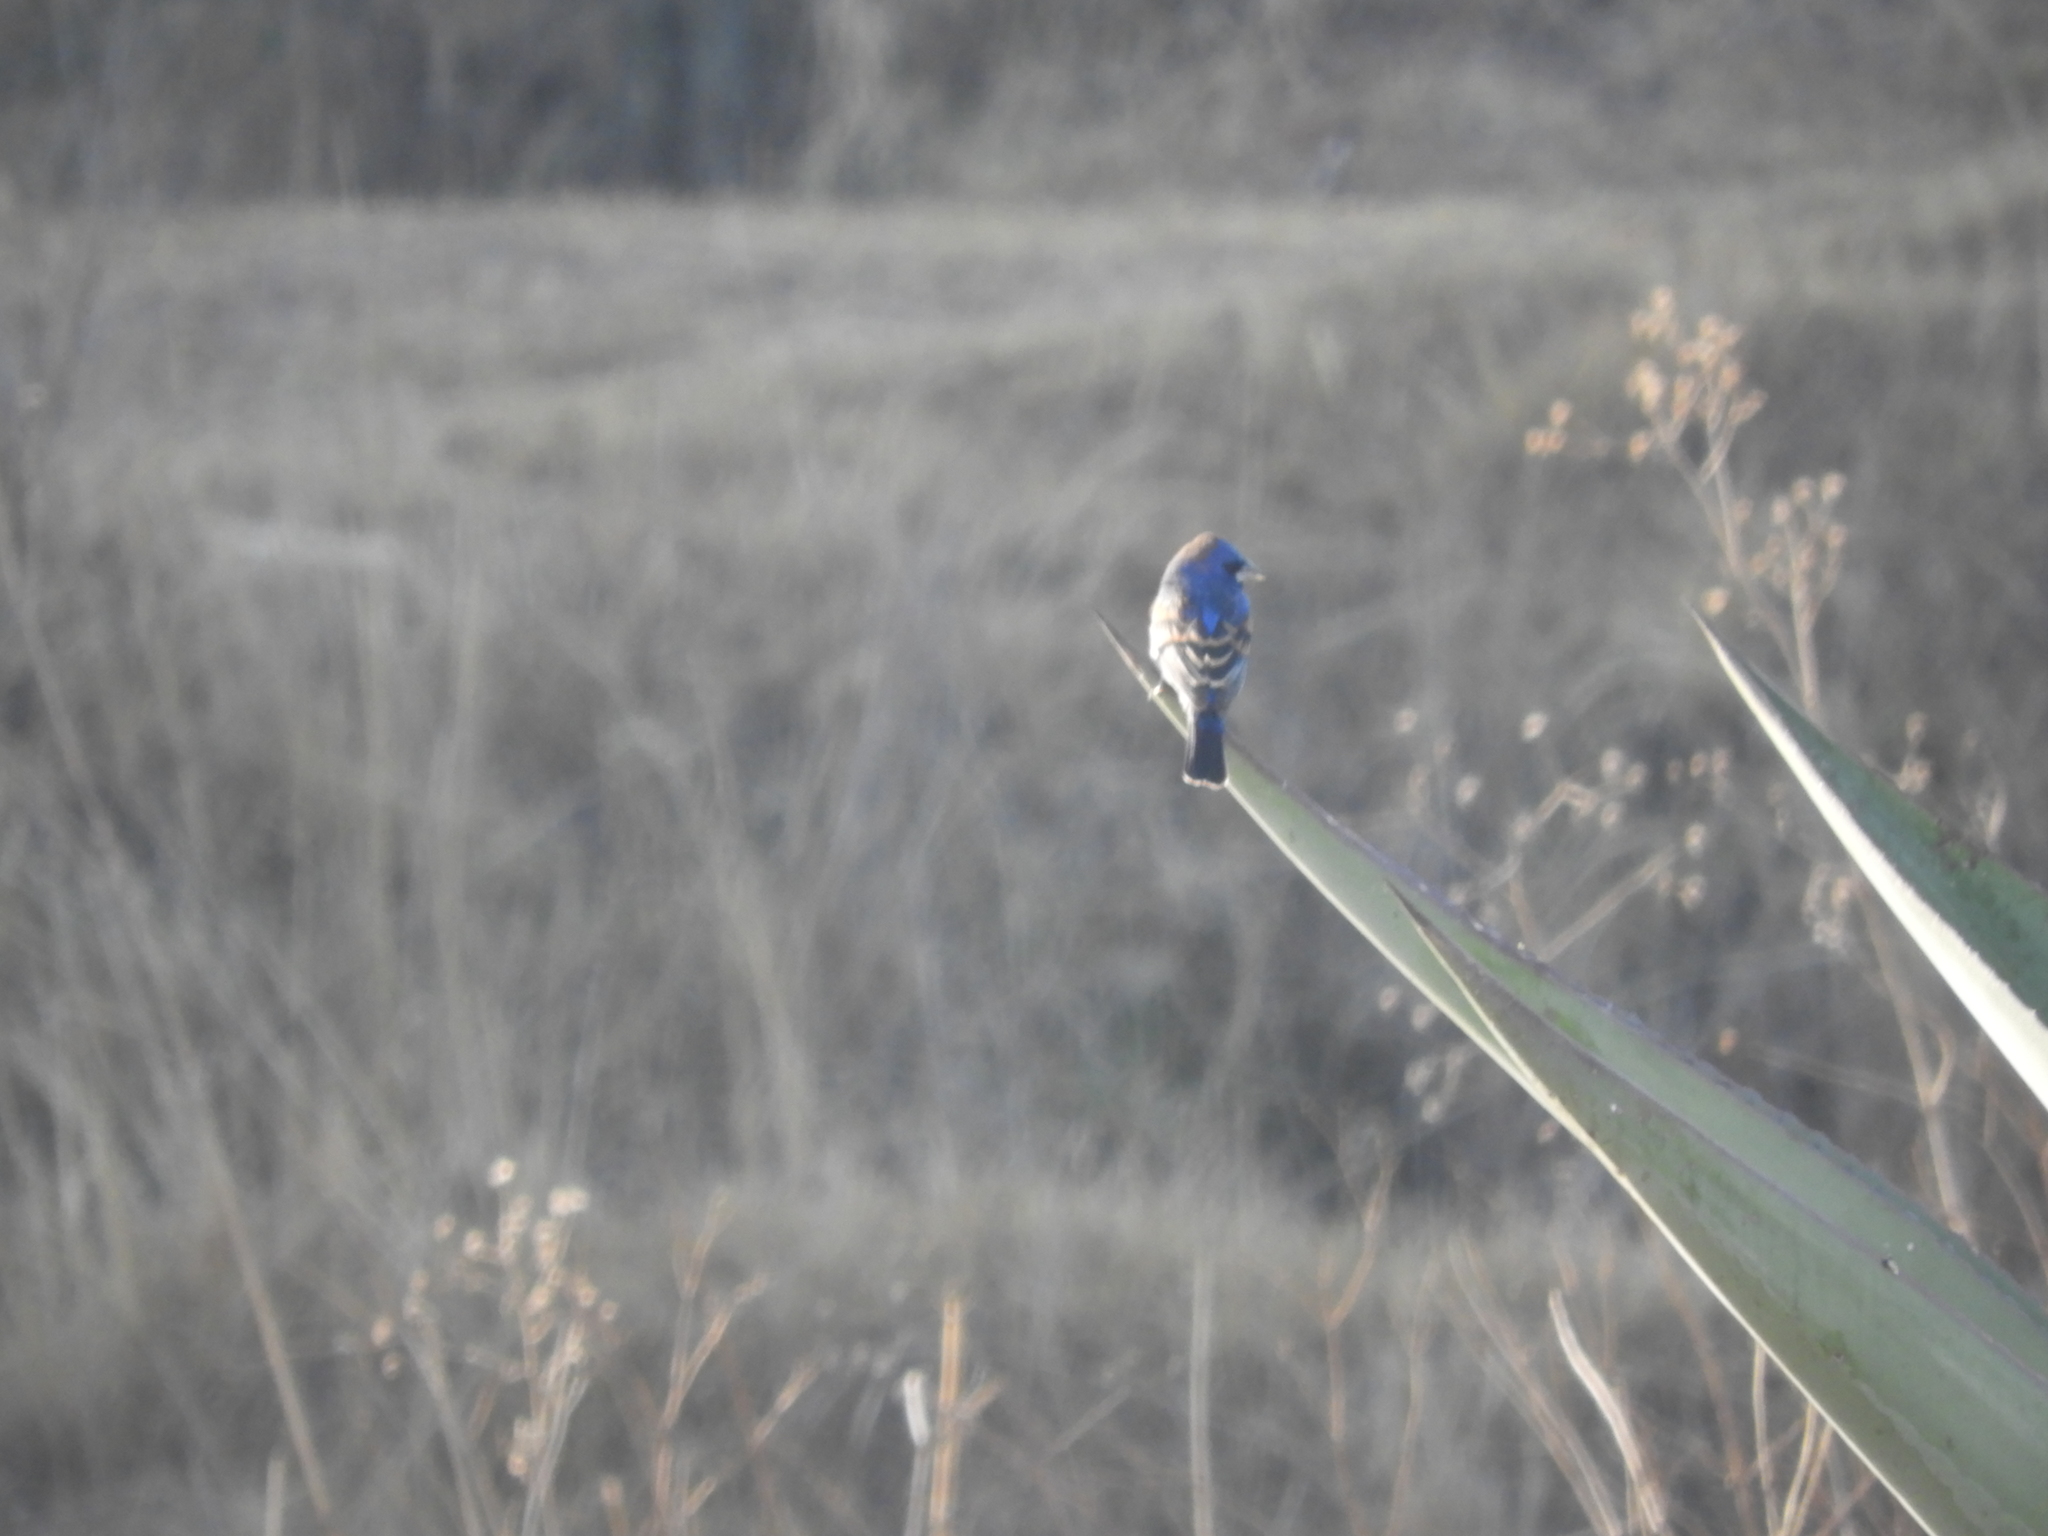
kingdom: Animalia
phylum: Chordata
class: Aves
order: Passeriformes
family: Cardinalidae
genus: Passerina
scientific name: Passerina caerulea
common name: Blue grosbeak
